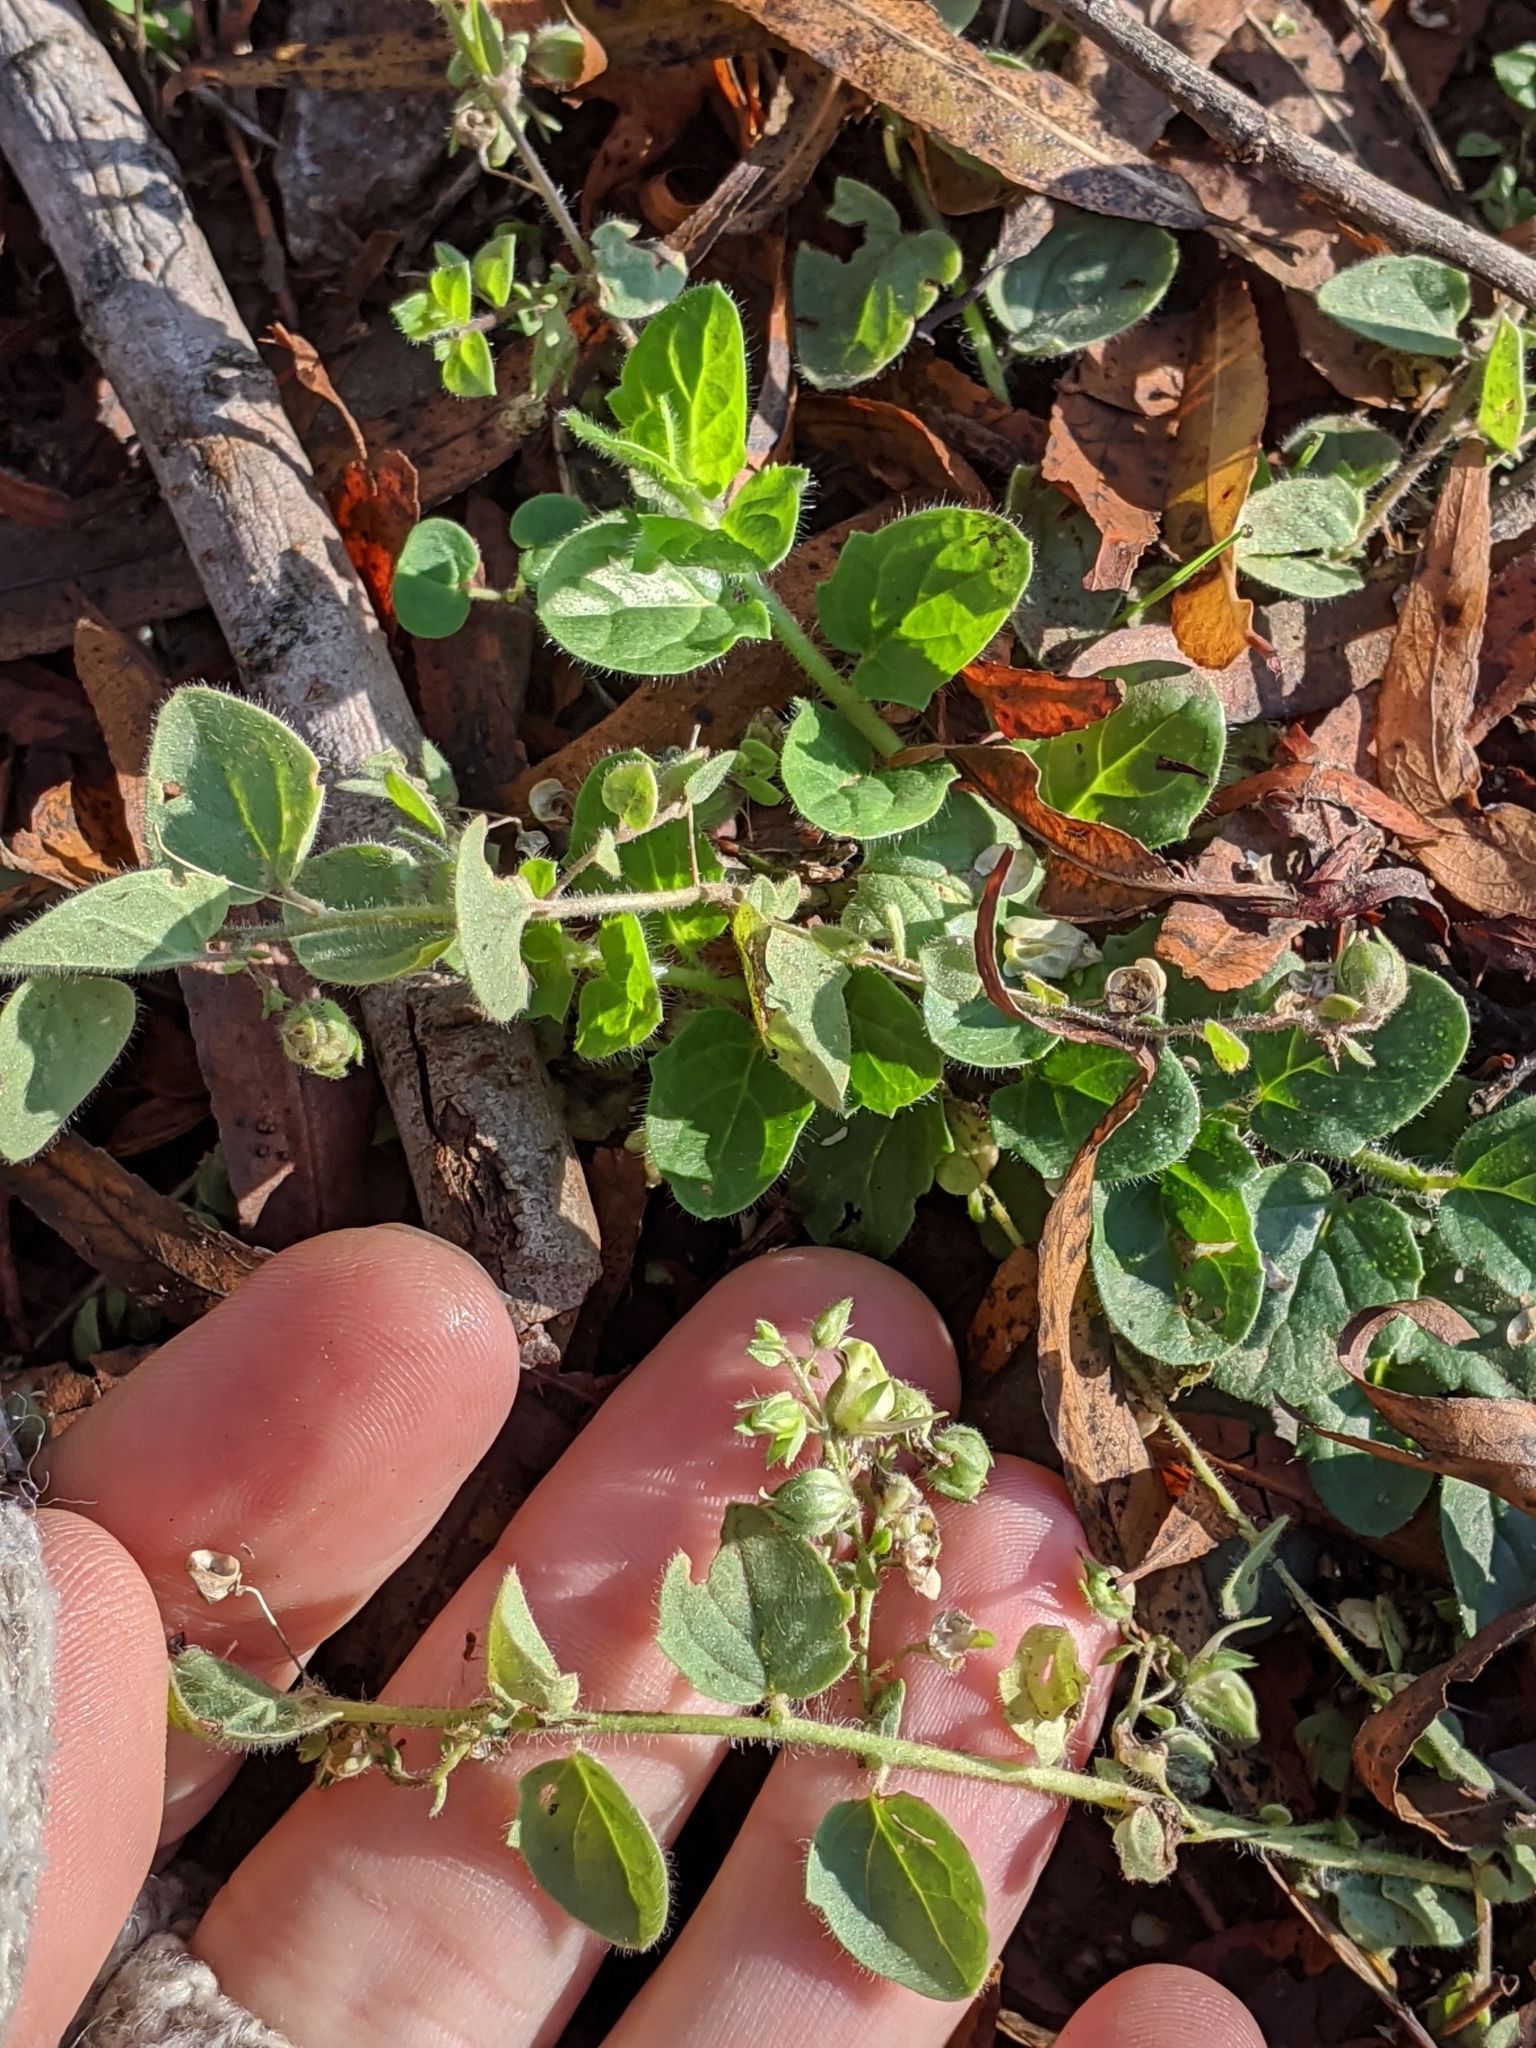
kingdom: Plantae
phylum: Tracheophyta
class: Magnoliopsida
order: Lamiales
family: Plantaginaceae
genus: Kickxia
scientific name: Kickxia elatine
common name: Sharp-leaved fluellen
